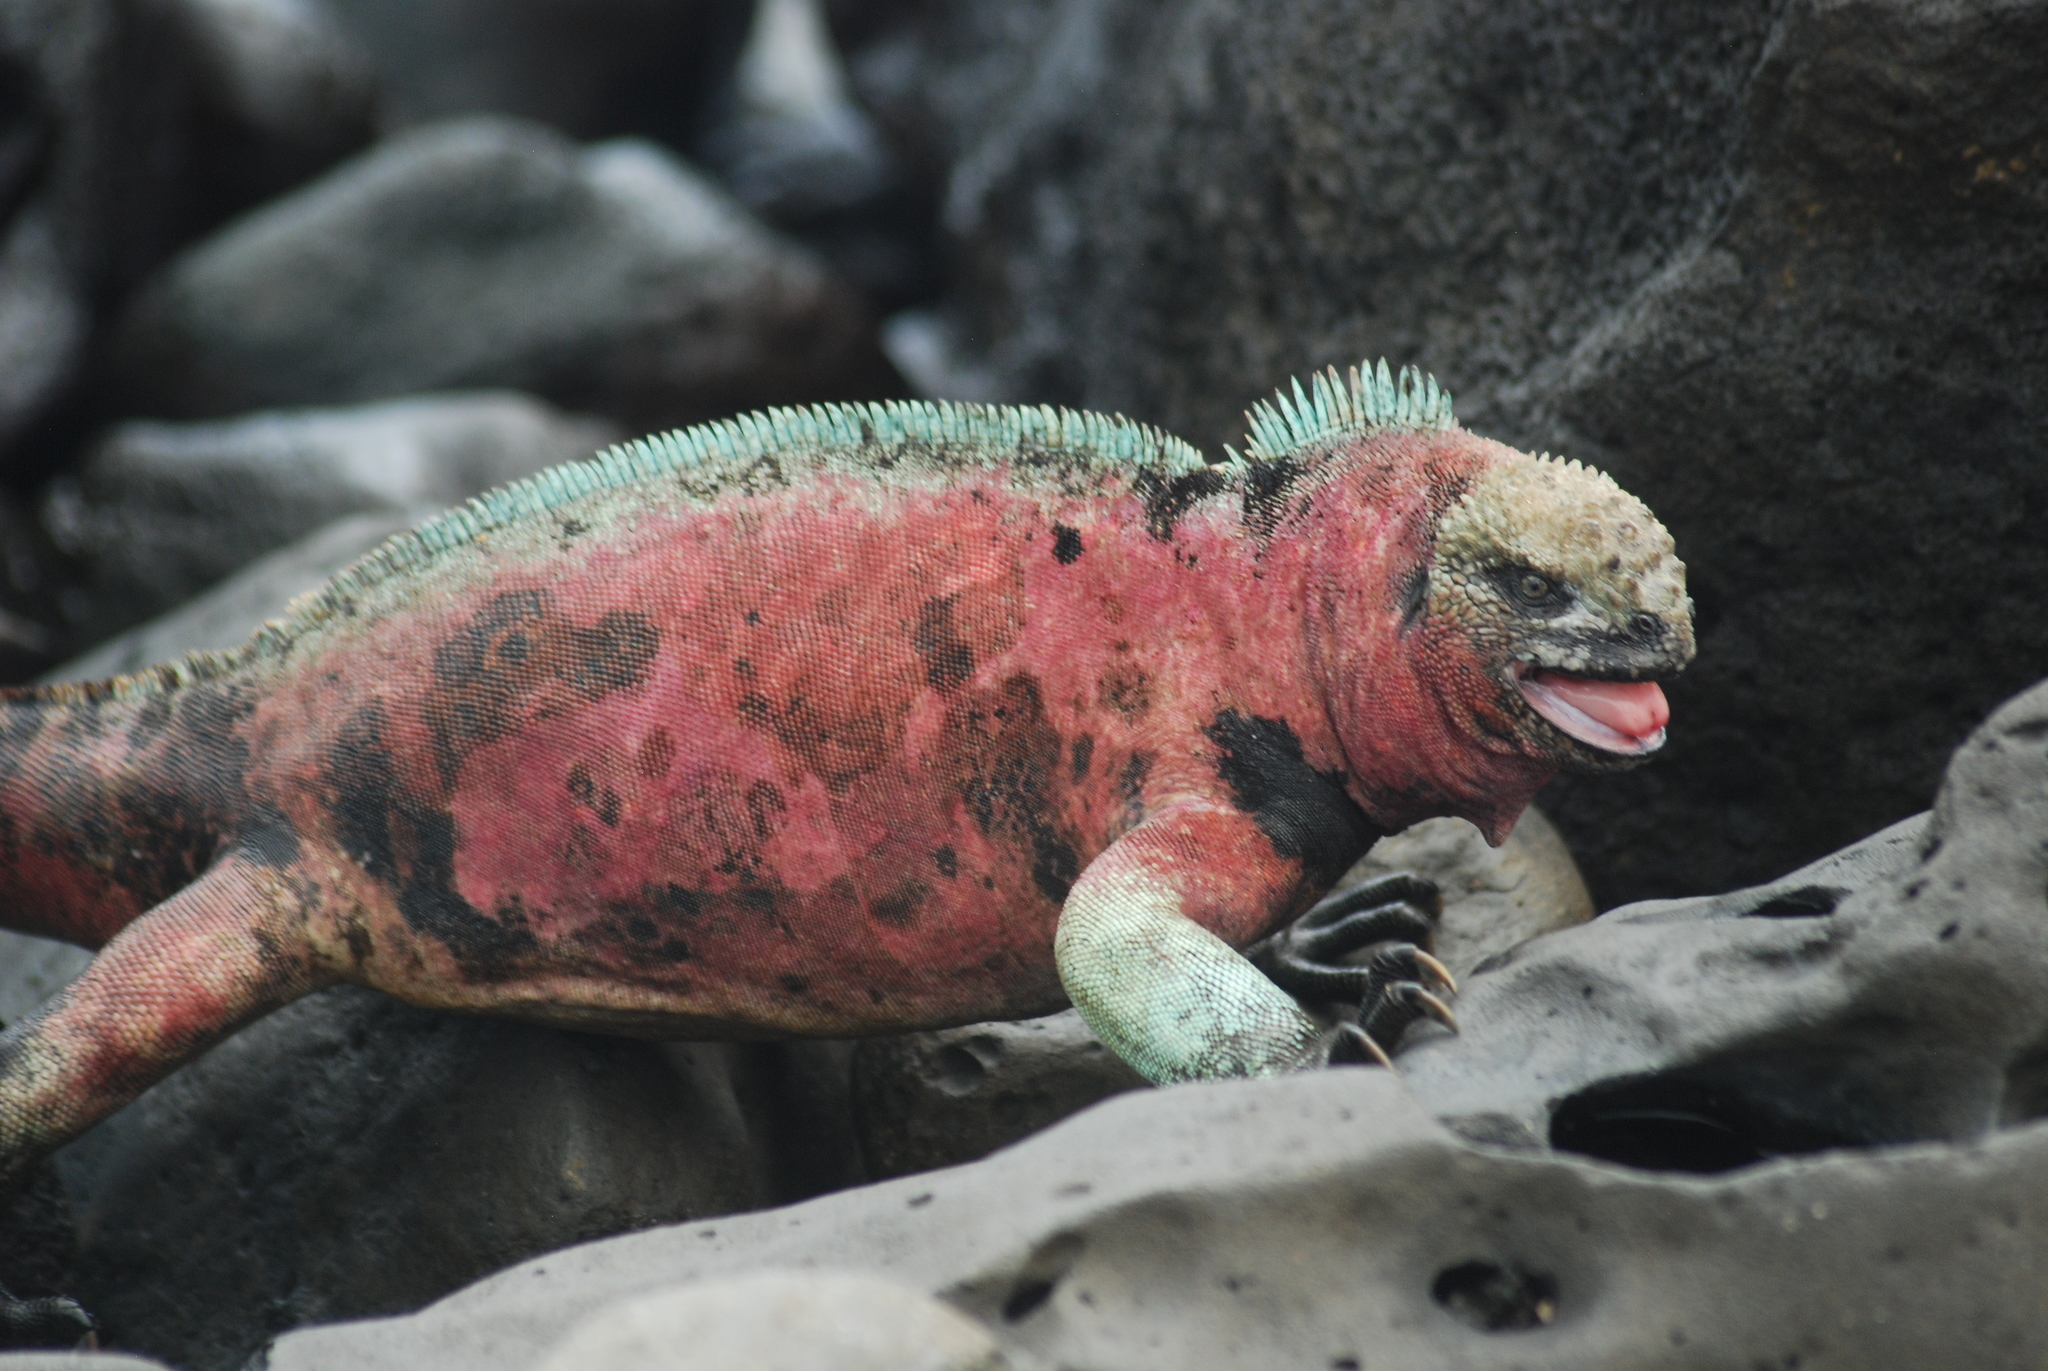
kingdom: Animalia
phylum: Chordata
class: Squamata
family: Iguanidae
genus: Amblyrhynchus
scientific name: Amblyrhynchus cristatus
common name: Marine iguana
